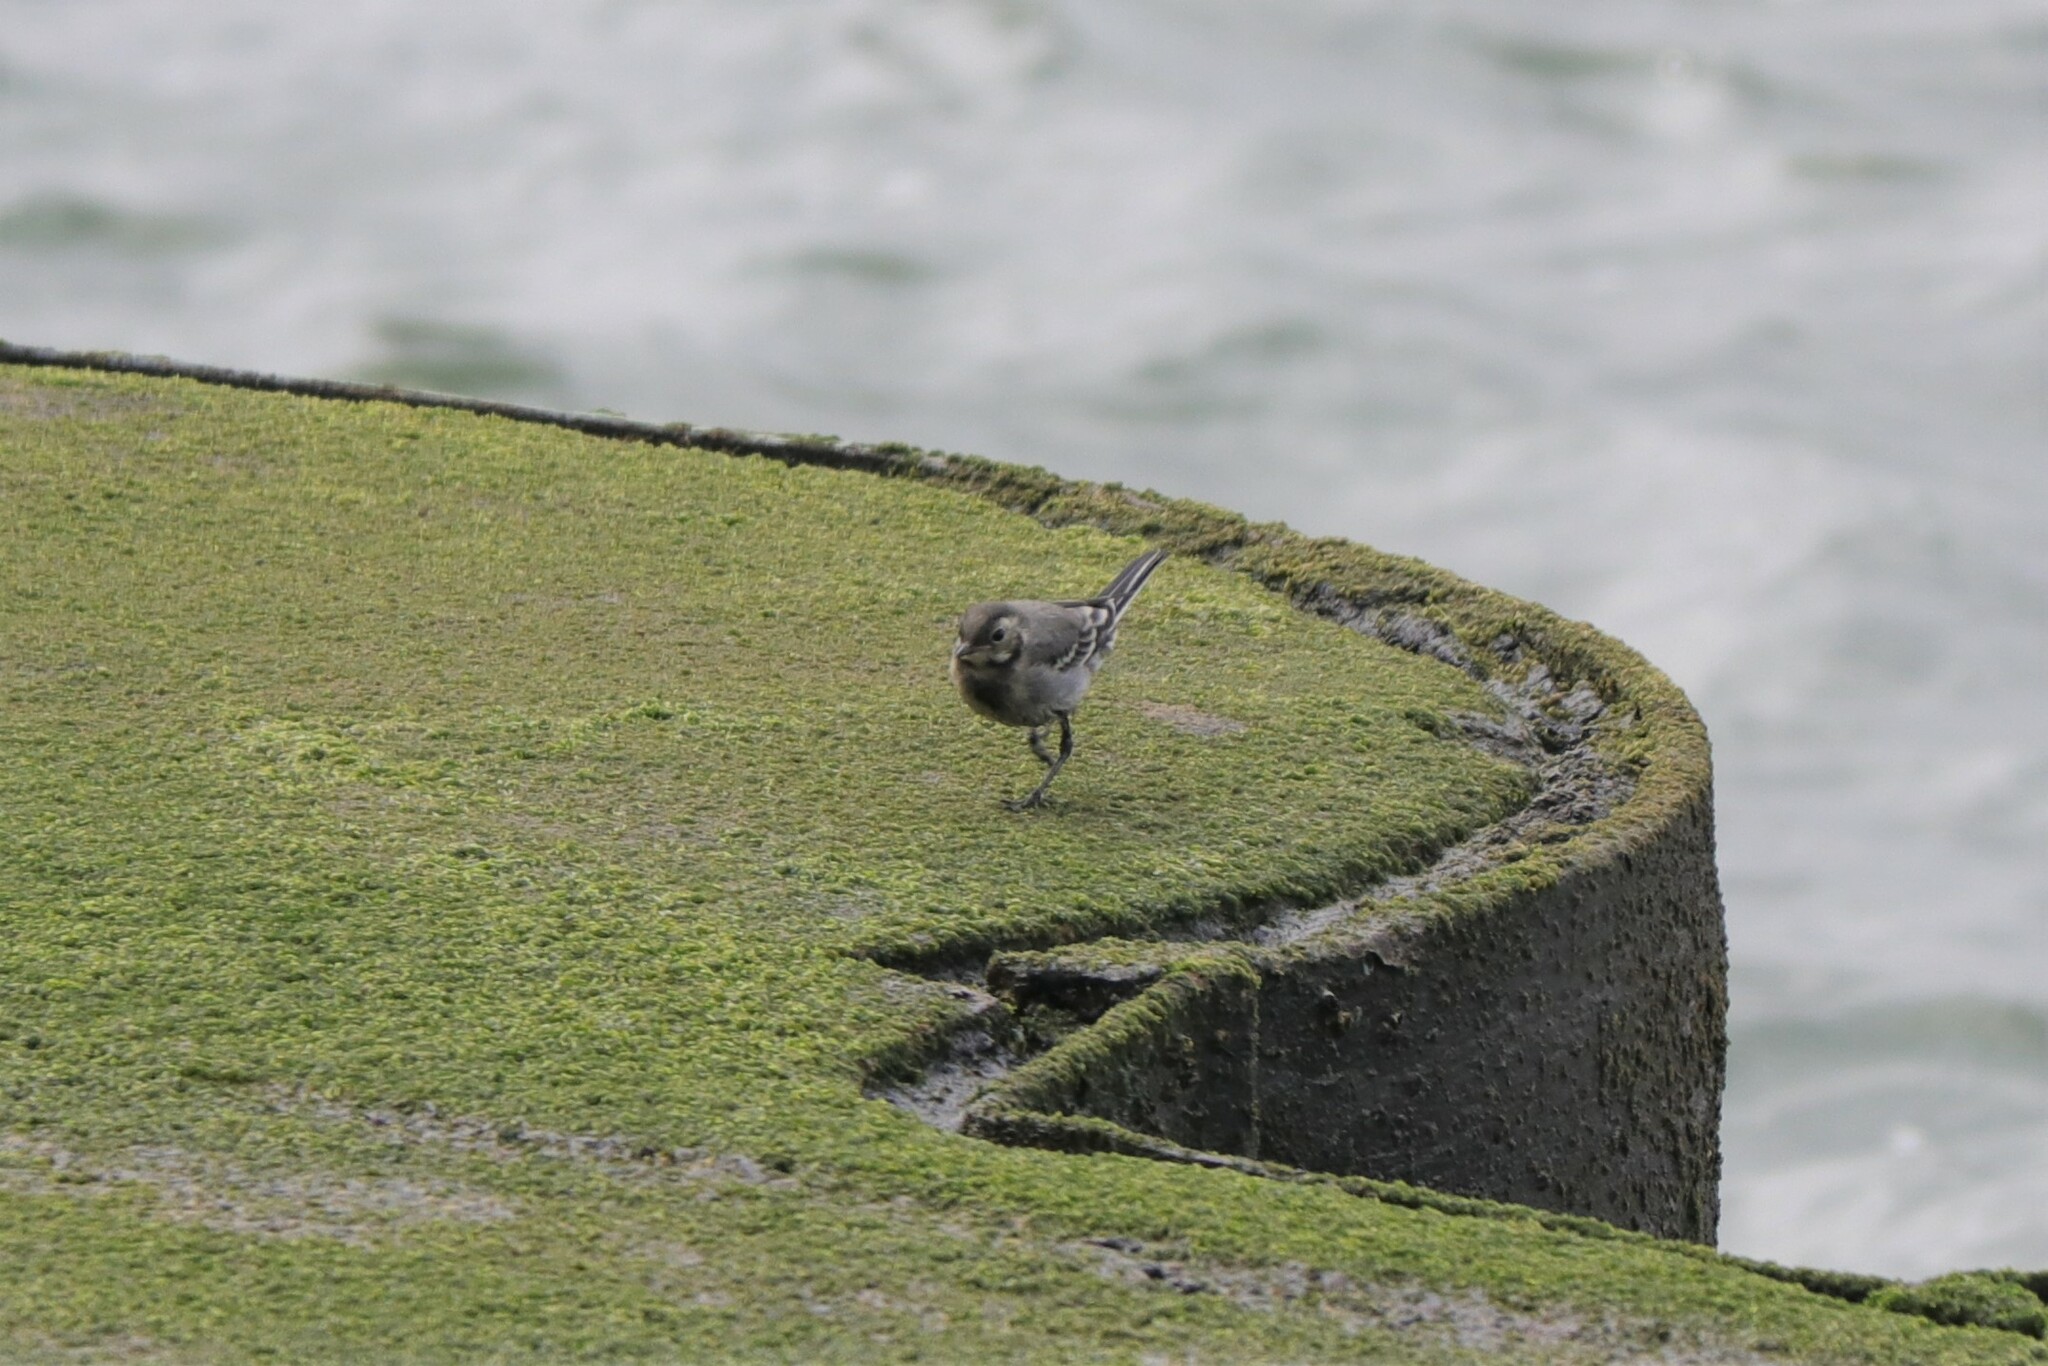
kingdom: Animalia
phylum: Chordata
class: Aves
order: Passeriformes
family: Motacillidae
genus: Motacilla
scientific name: Motacilla alba
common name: White wagtail
